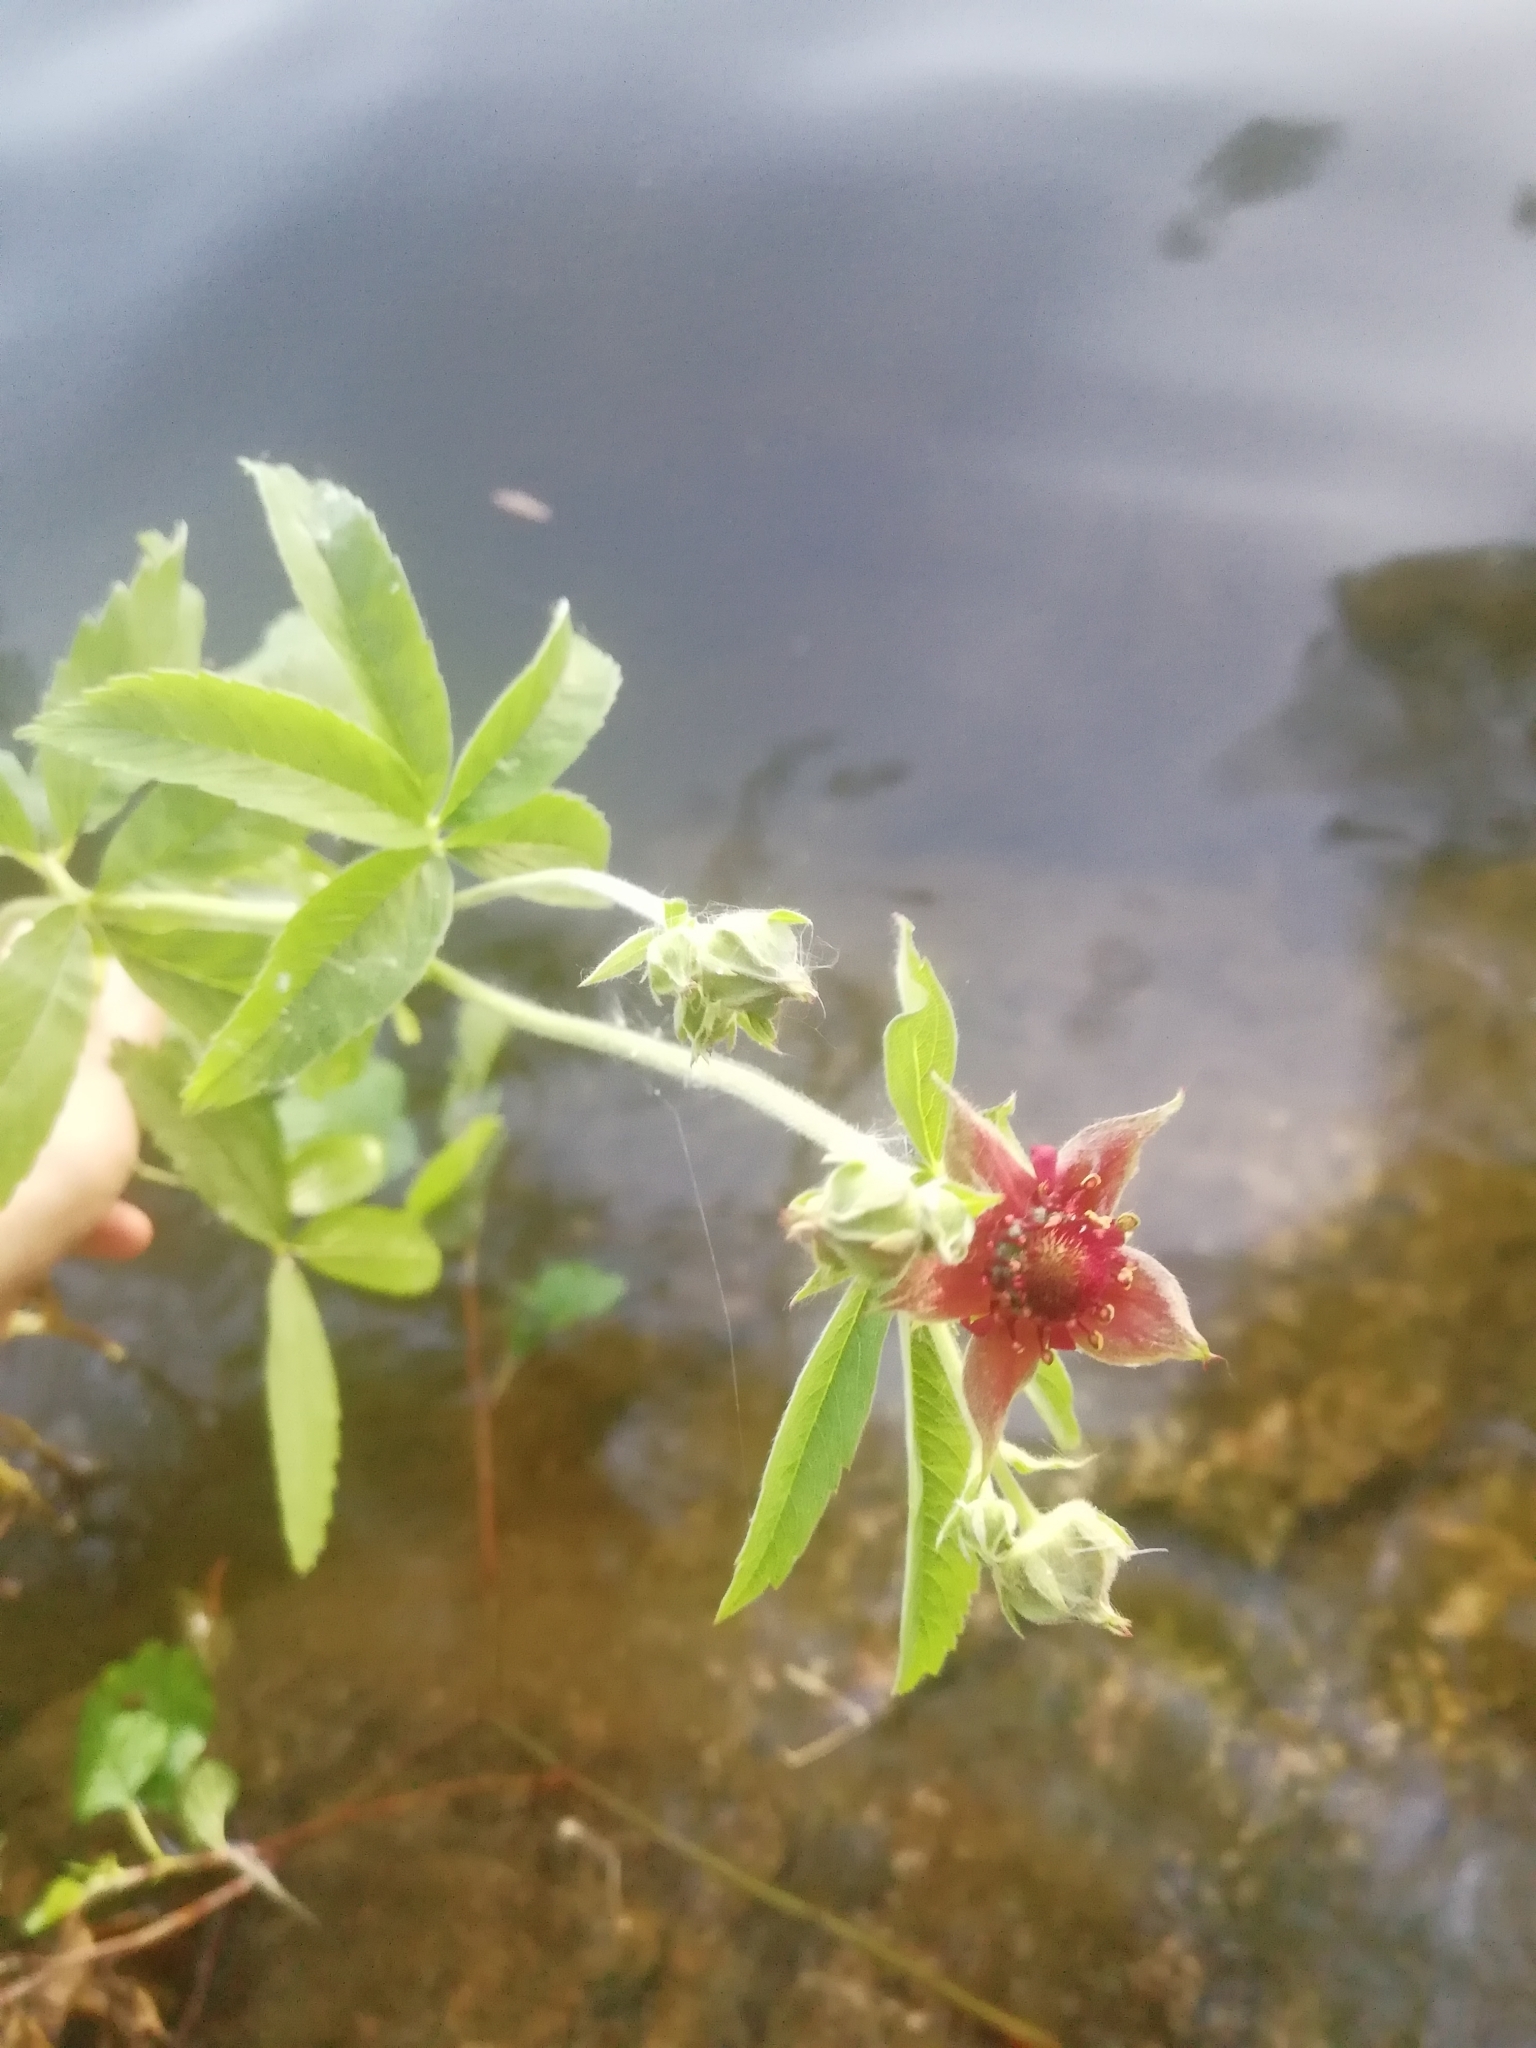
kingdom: Plantae
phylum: Tracheophyta
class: Magnoliopsida
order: Rosales
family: Rosaceae
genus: Comarum
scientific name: Comarum palustre
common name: Marsh cinquefoil
